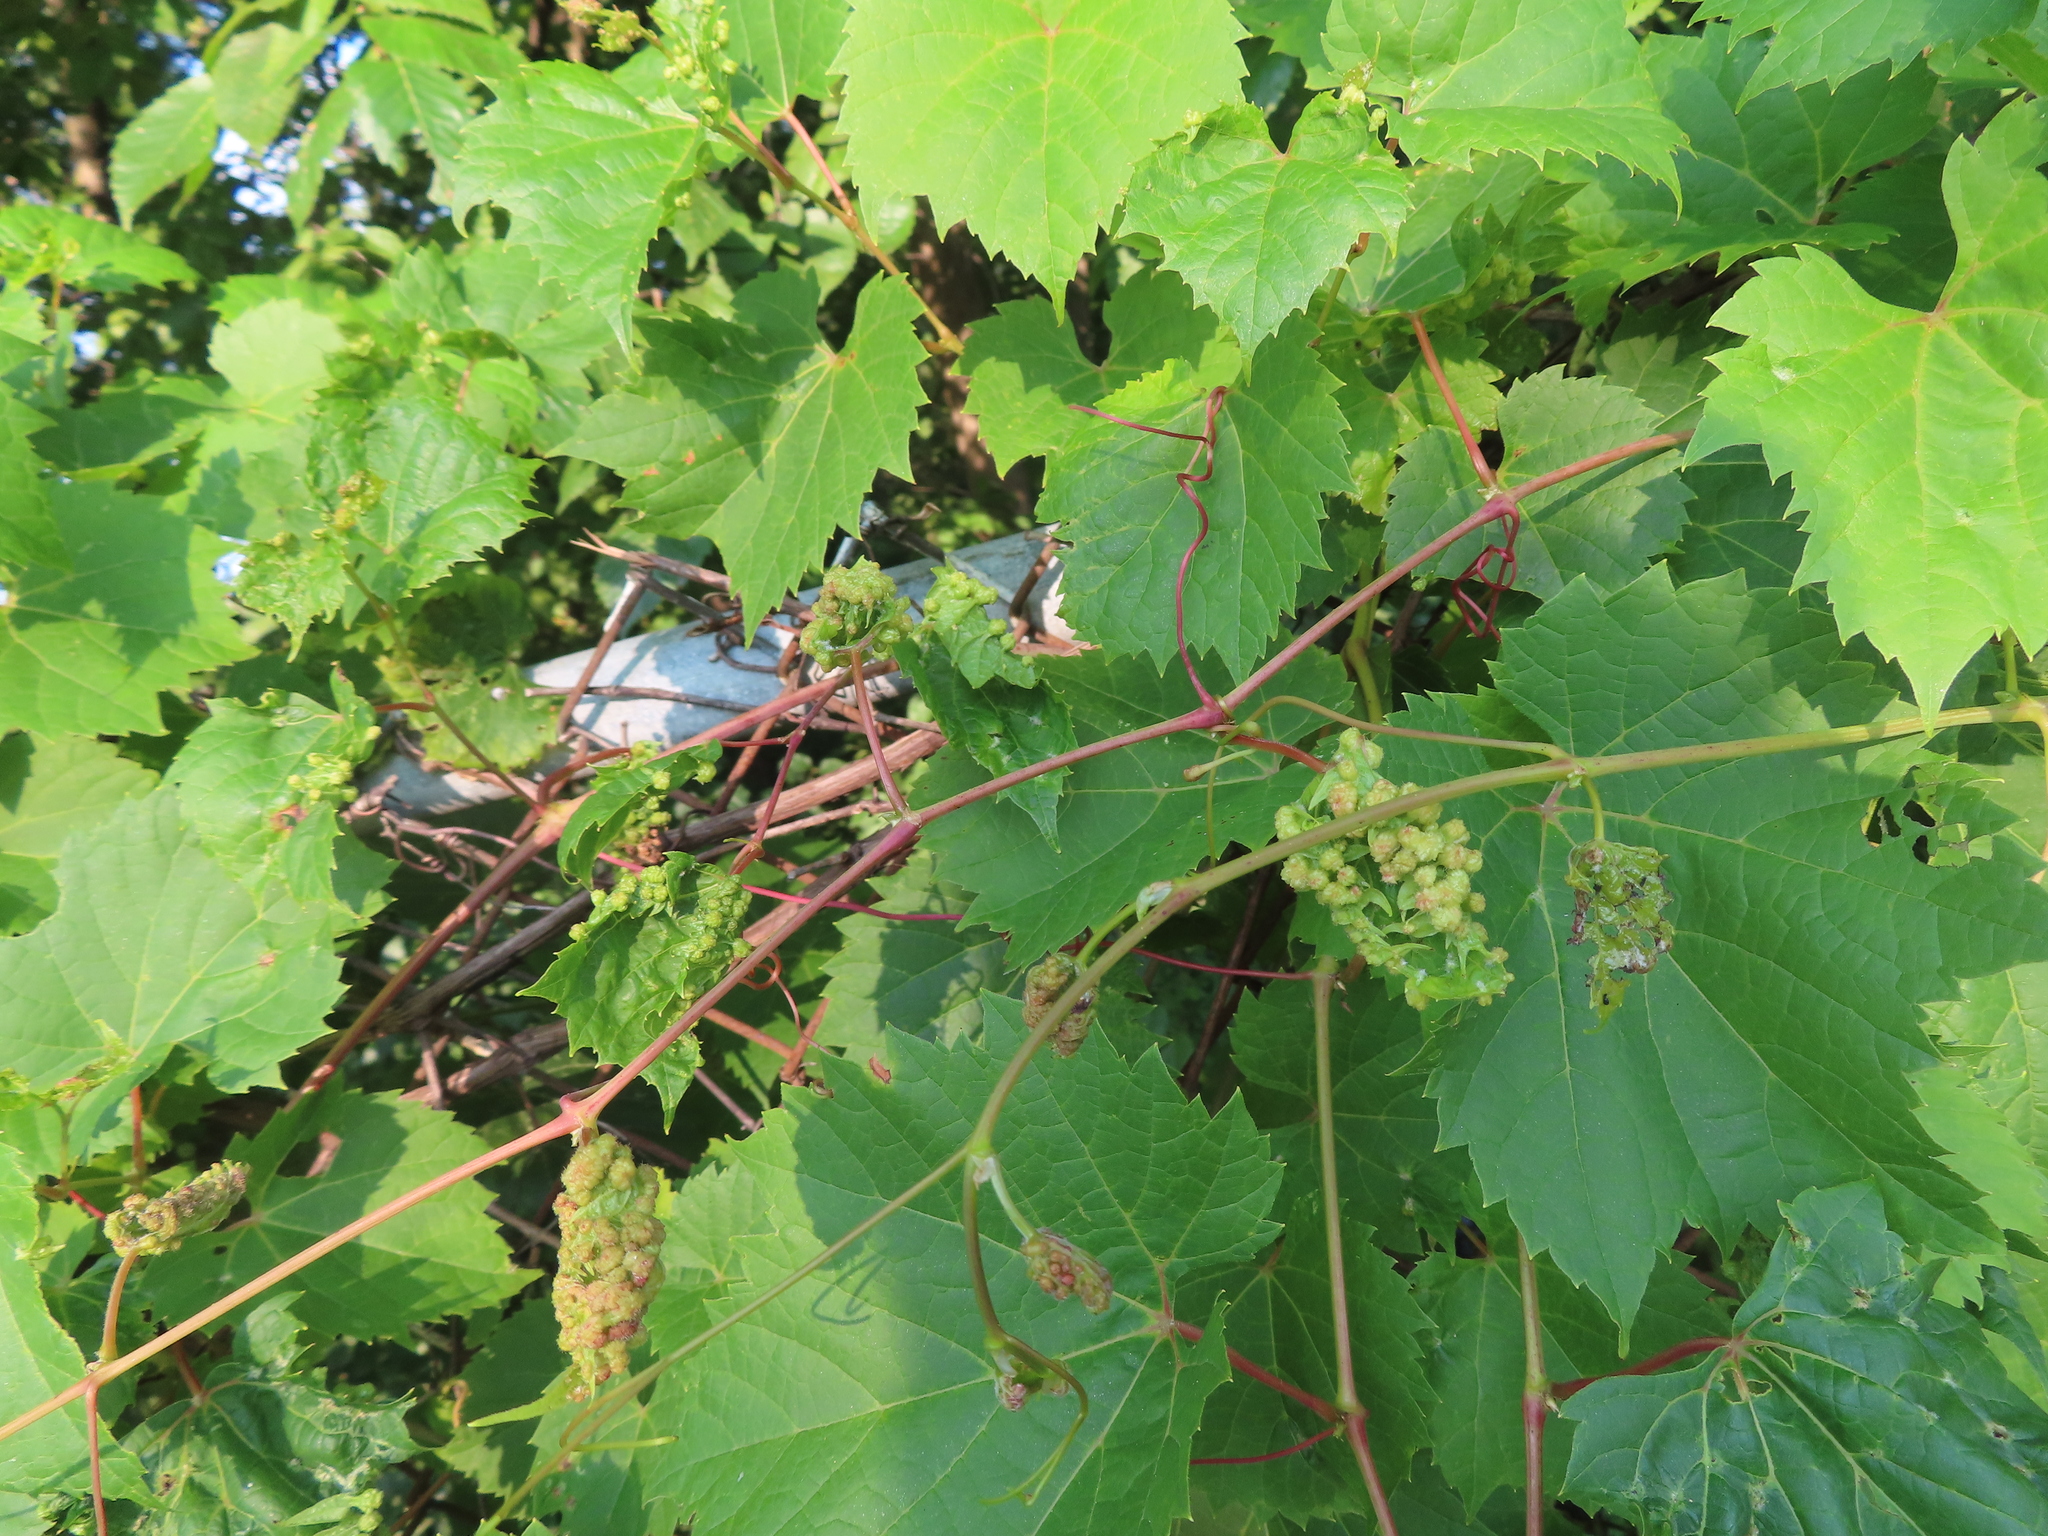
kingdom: Animalia
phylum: Arthropoda
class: Insecta
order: Hemiptera
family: Phylloxeridae
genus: Daktulosphaira
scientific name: Daktulosphaira vitifoliae
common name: Grape phylloxera
